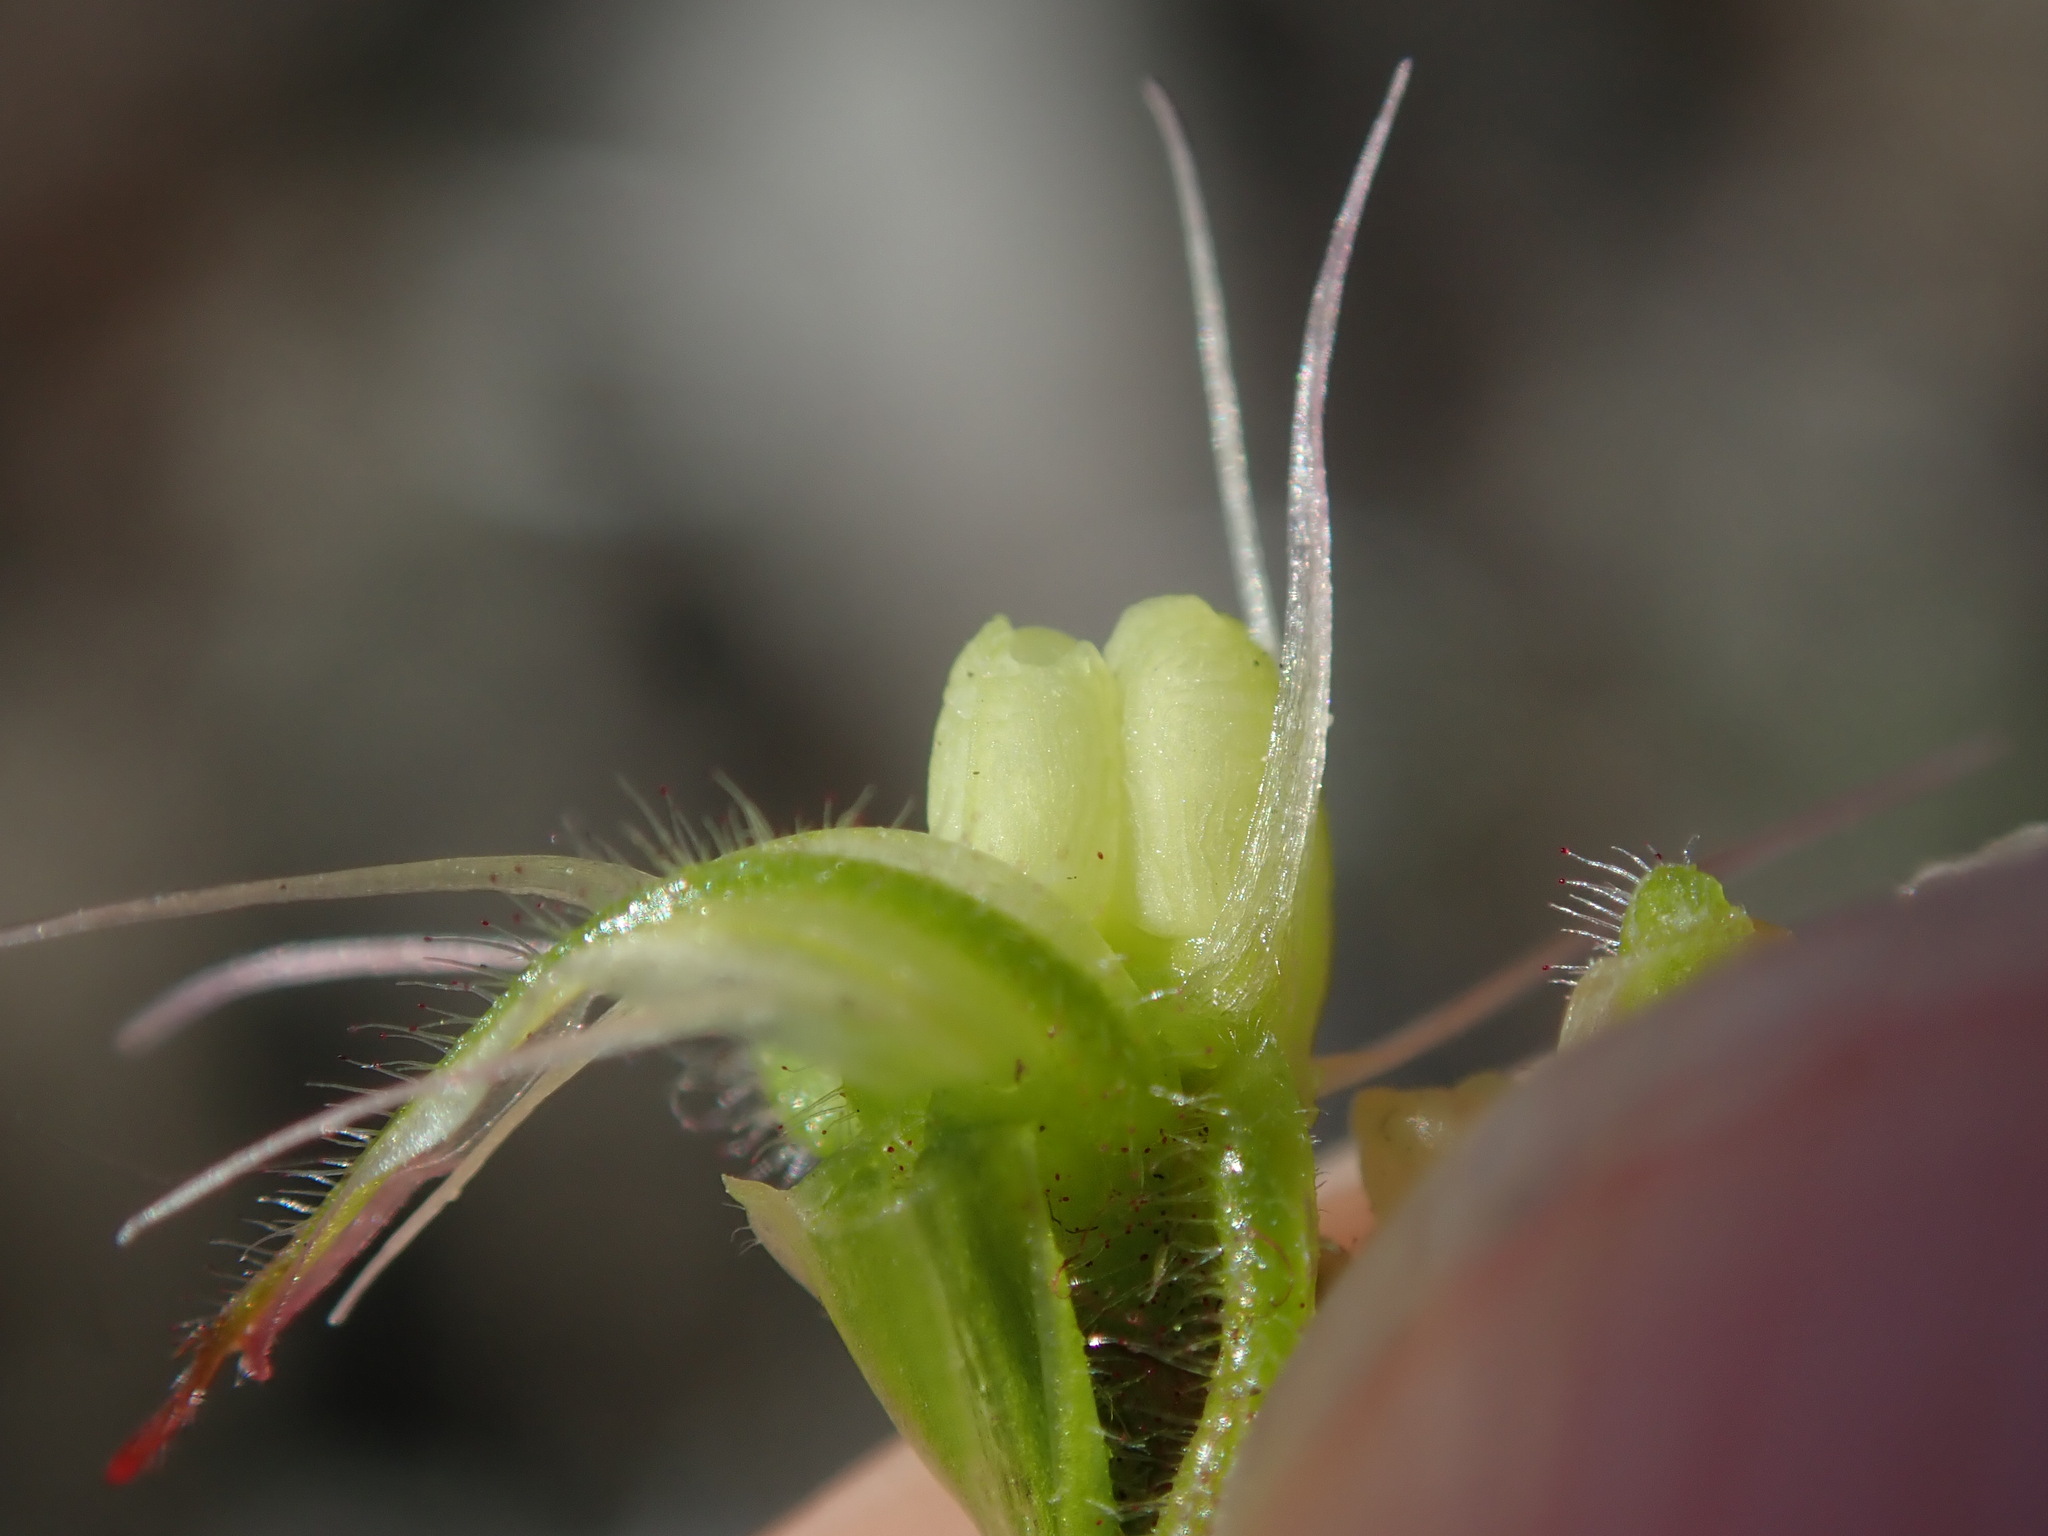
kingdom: Plantae
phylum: Tracheophyta
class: Magnoliopsida
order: Geraniales
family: Geraniaceae
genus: Geranium
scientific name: Geranium purpureum
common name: Little-robin
